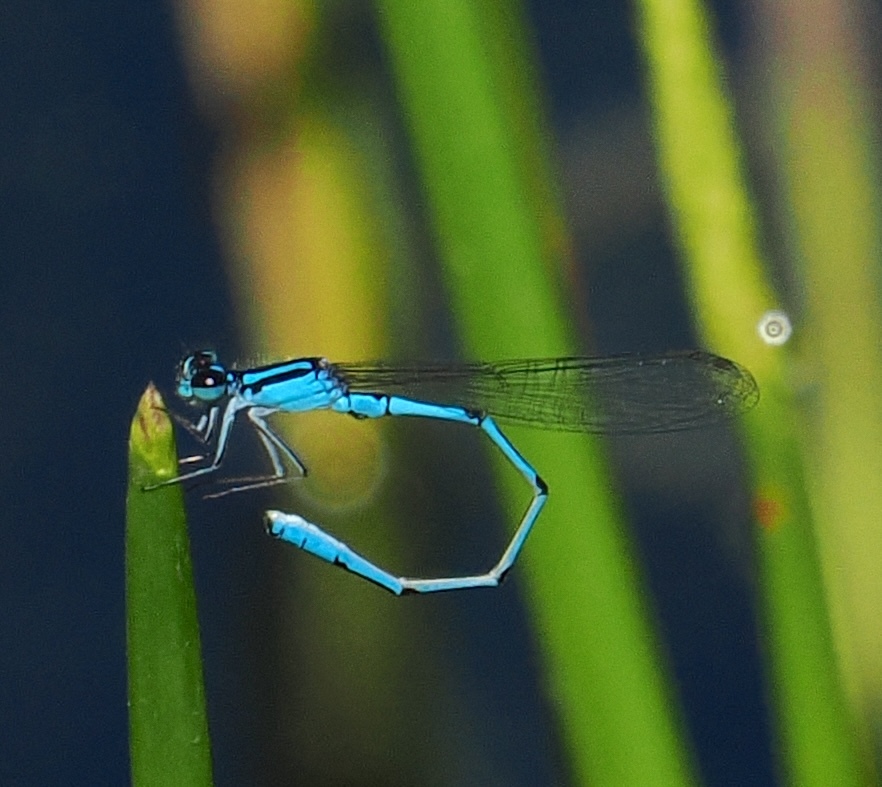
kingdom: Animalia
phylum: Arthropoda
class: Insecta
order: Odonata
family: Coenagrionidae
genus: Acanthagrion
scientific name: Acanthagrion temporale
